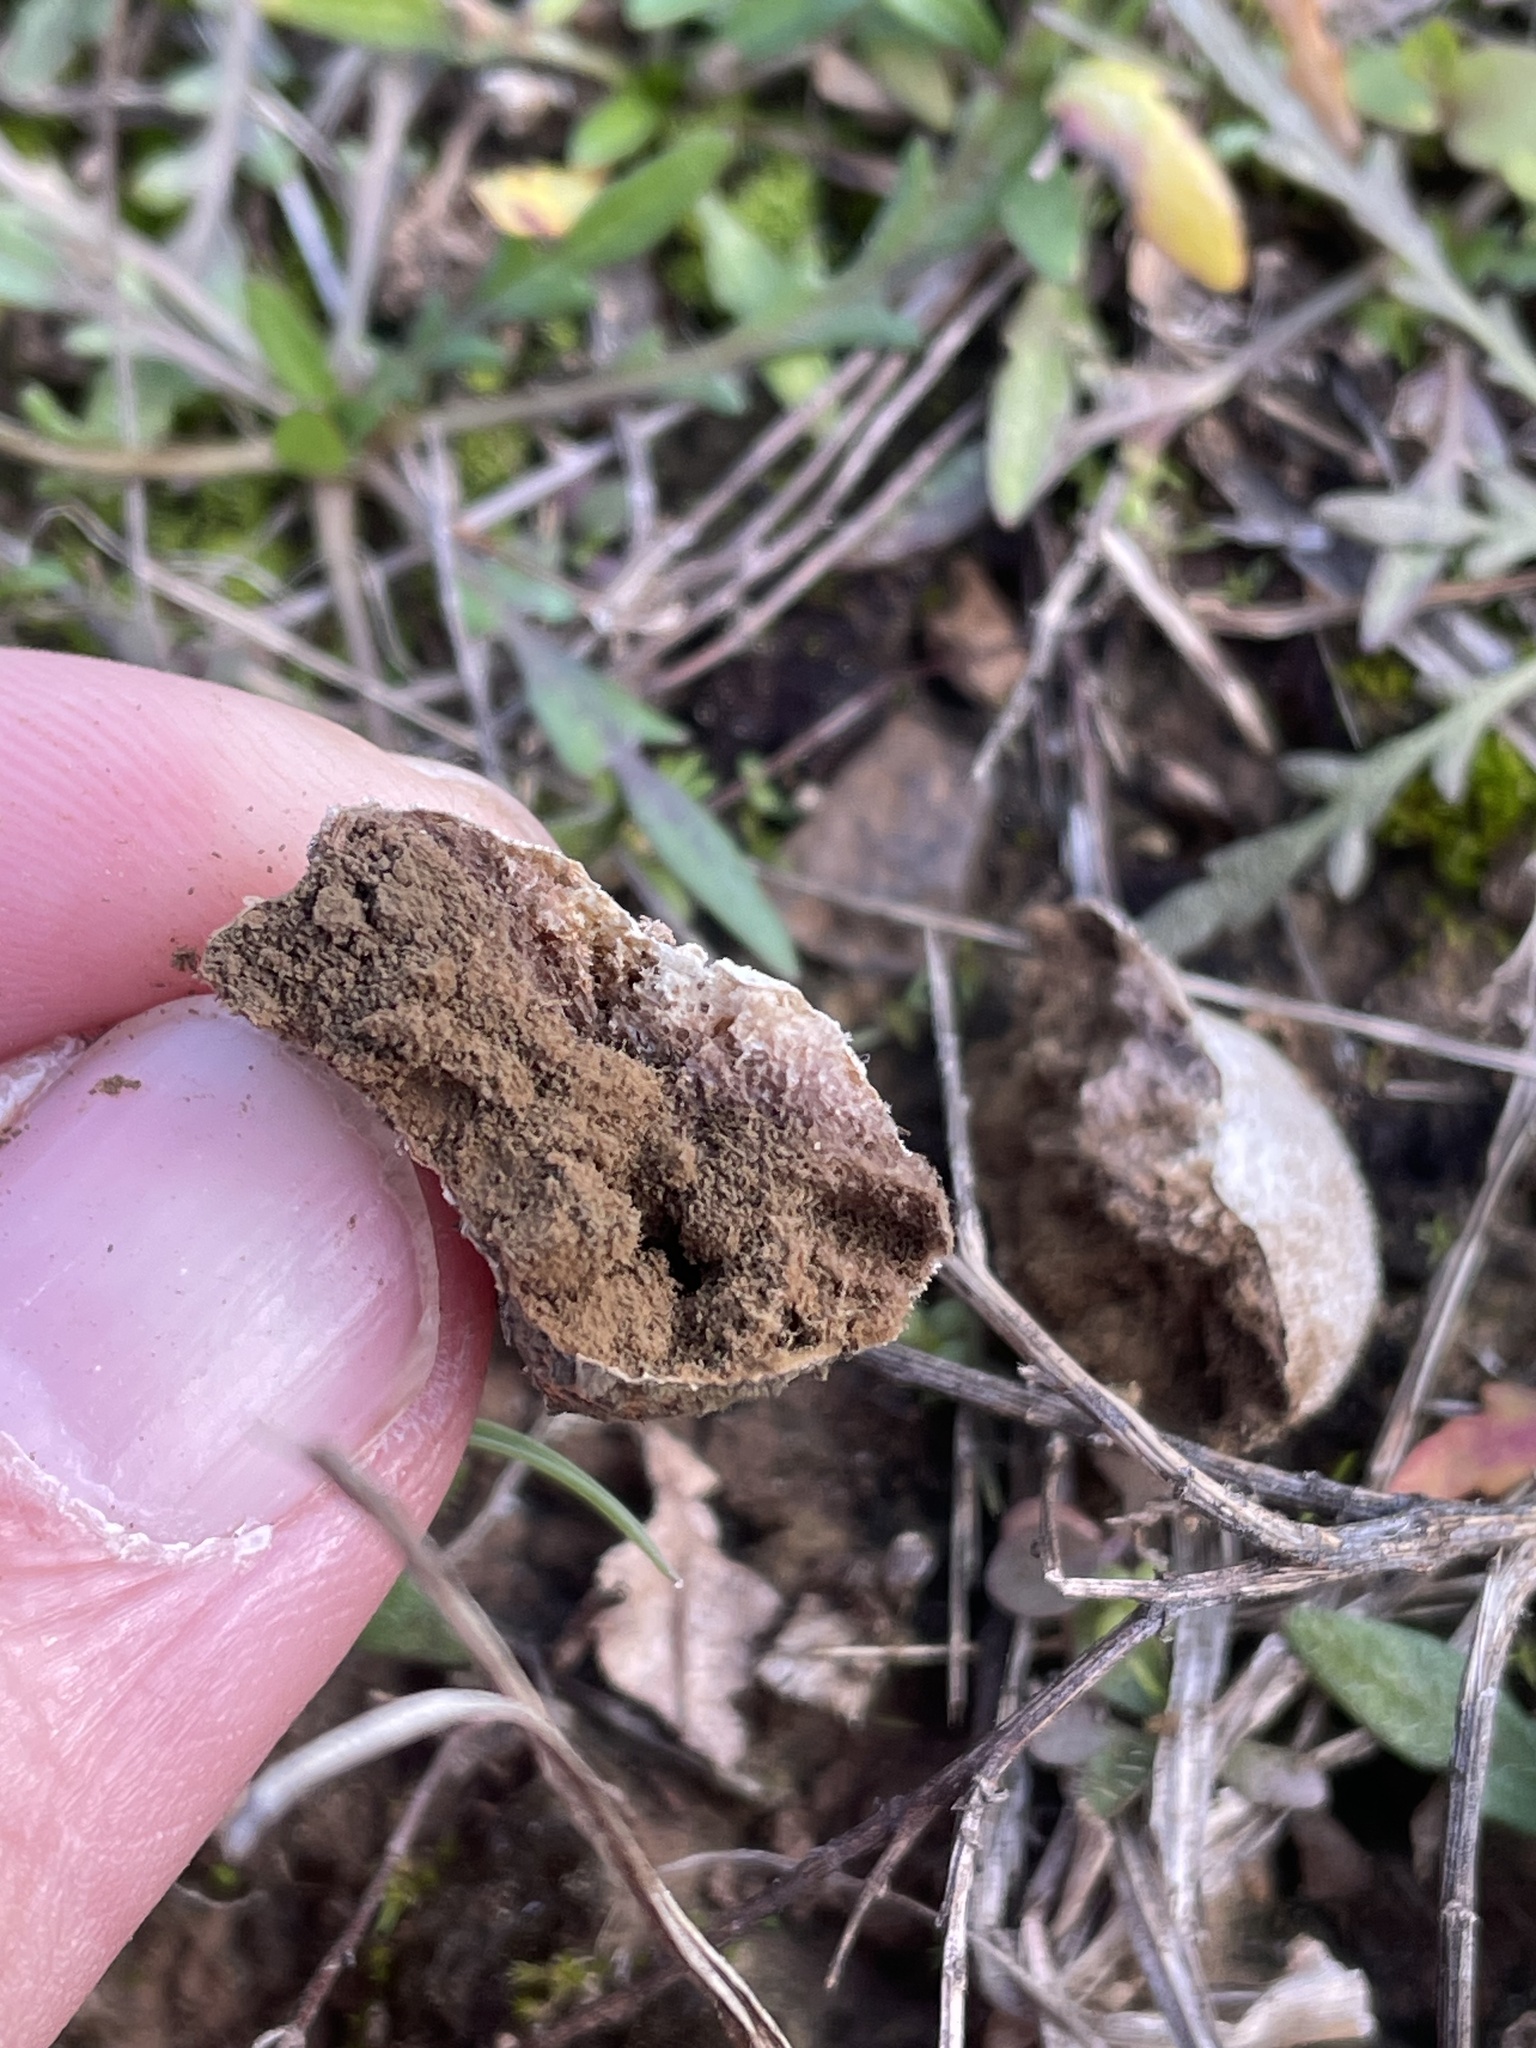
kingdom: Fungi
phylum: Basidiomycota
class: Agaricomycetes
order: Agaricales
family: Agaricaceae
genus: Lycoperdon
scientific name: Lycoperdon marginatum
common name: Peeling puffball
